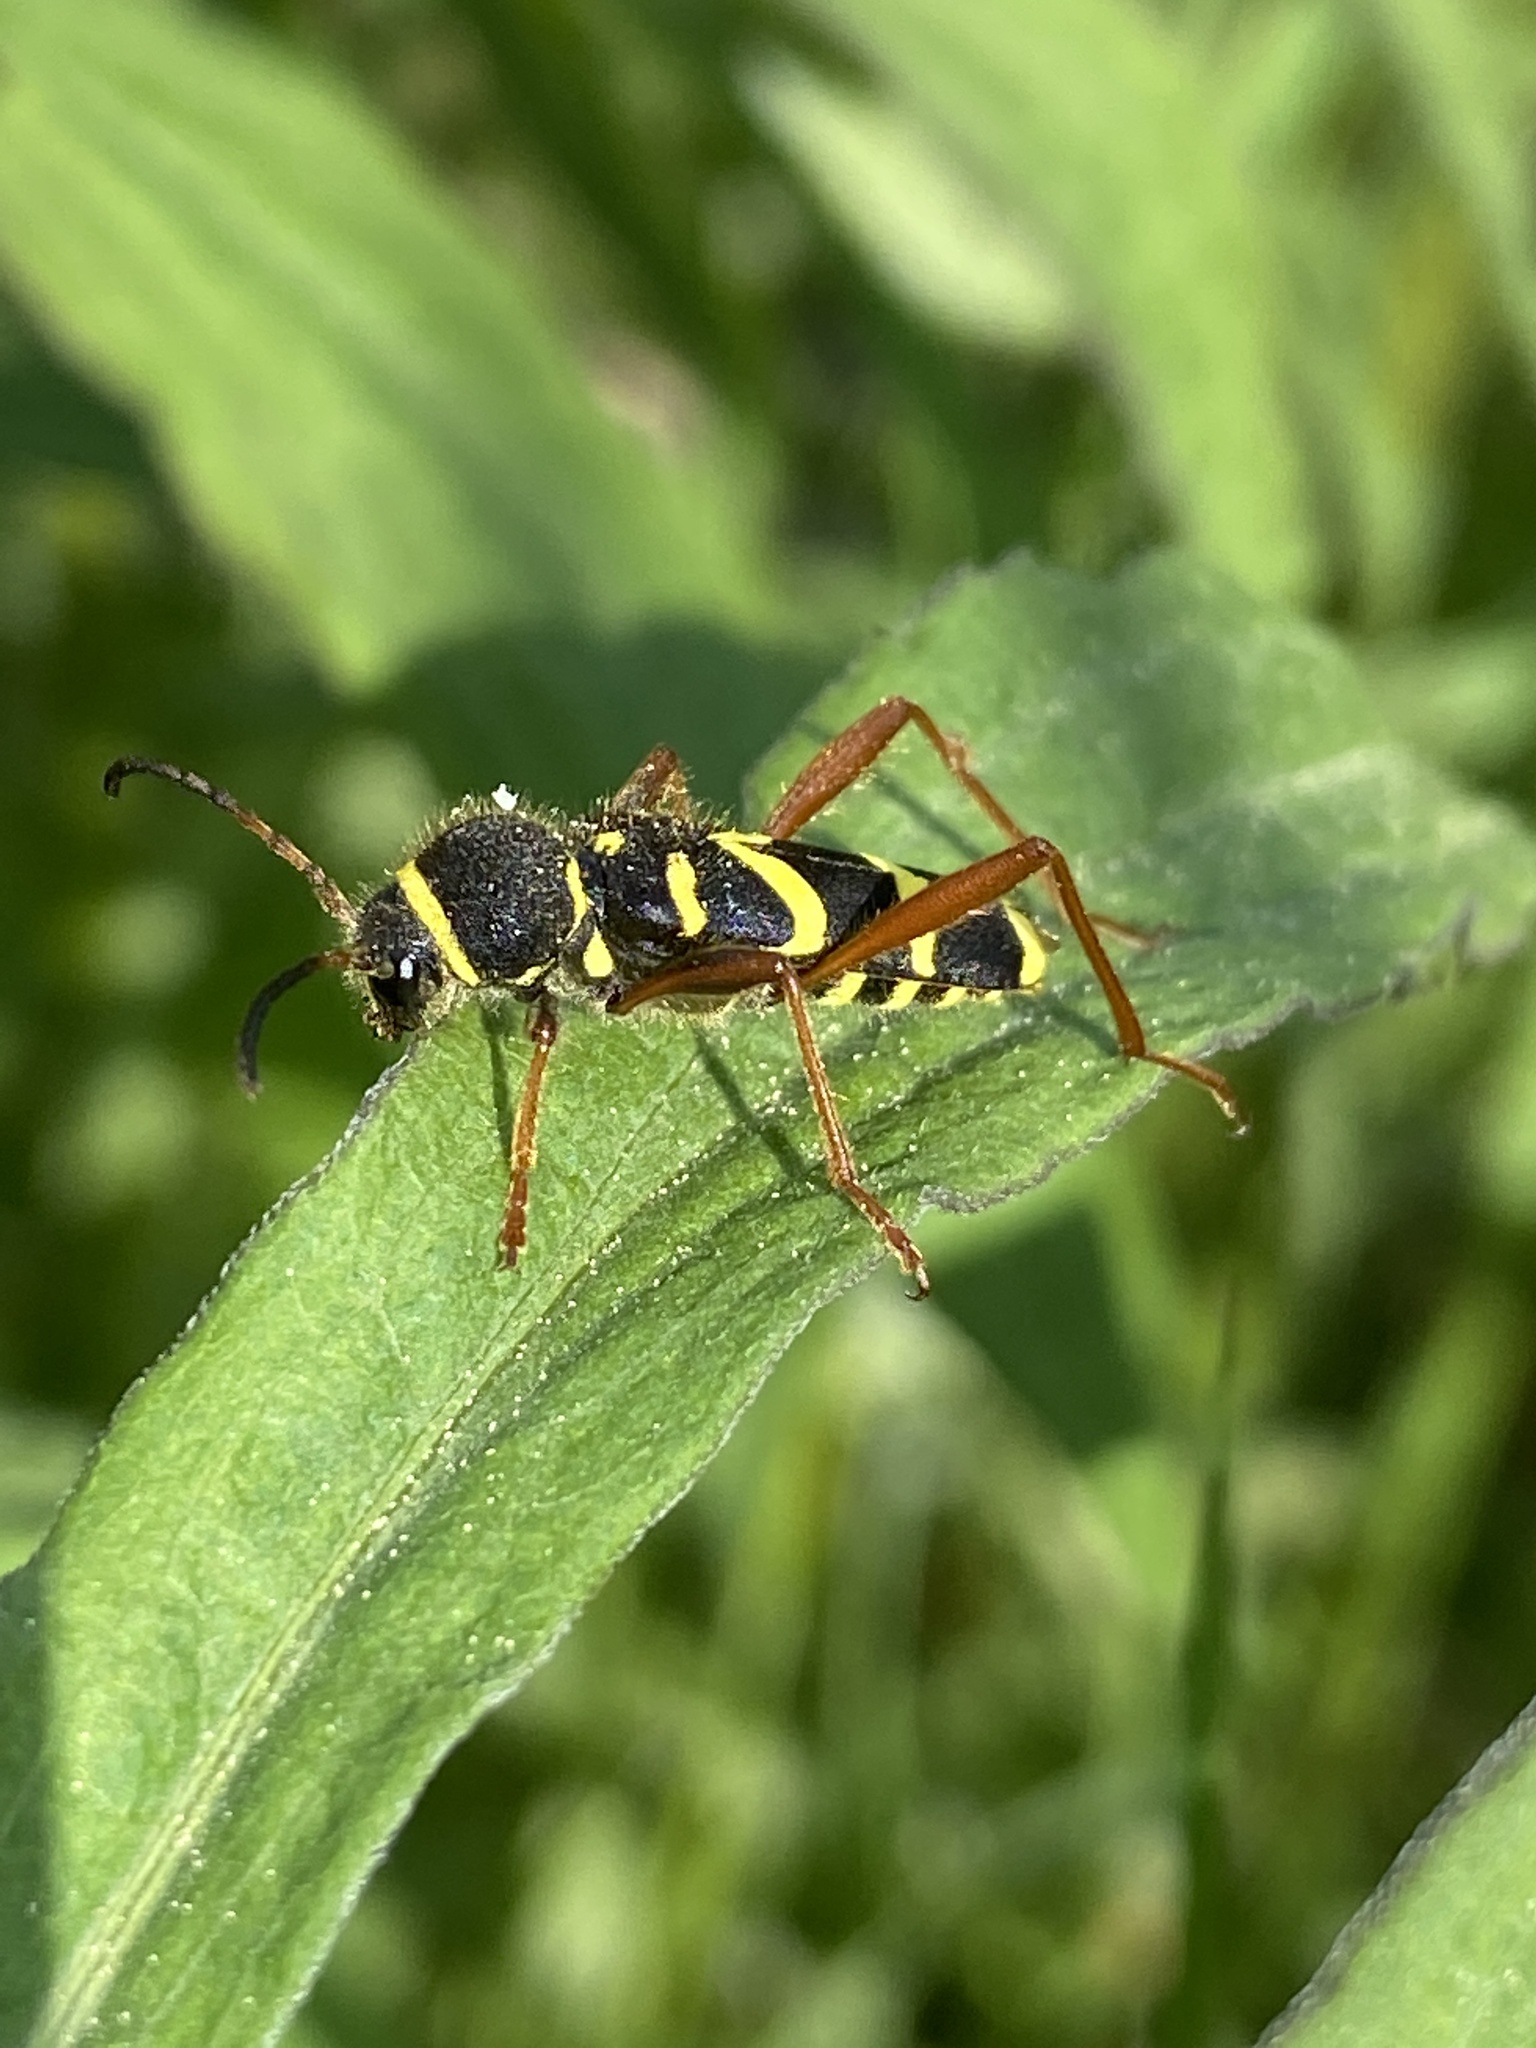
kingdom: Animalia
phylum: Arthropoda
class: Insecta
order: Coleoptera
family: Cerambycidae
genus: Clytus
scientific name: Clytus arietis
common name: Wasp beetle
